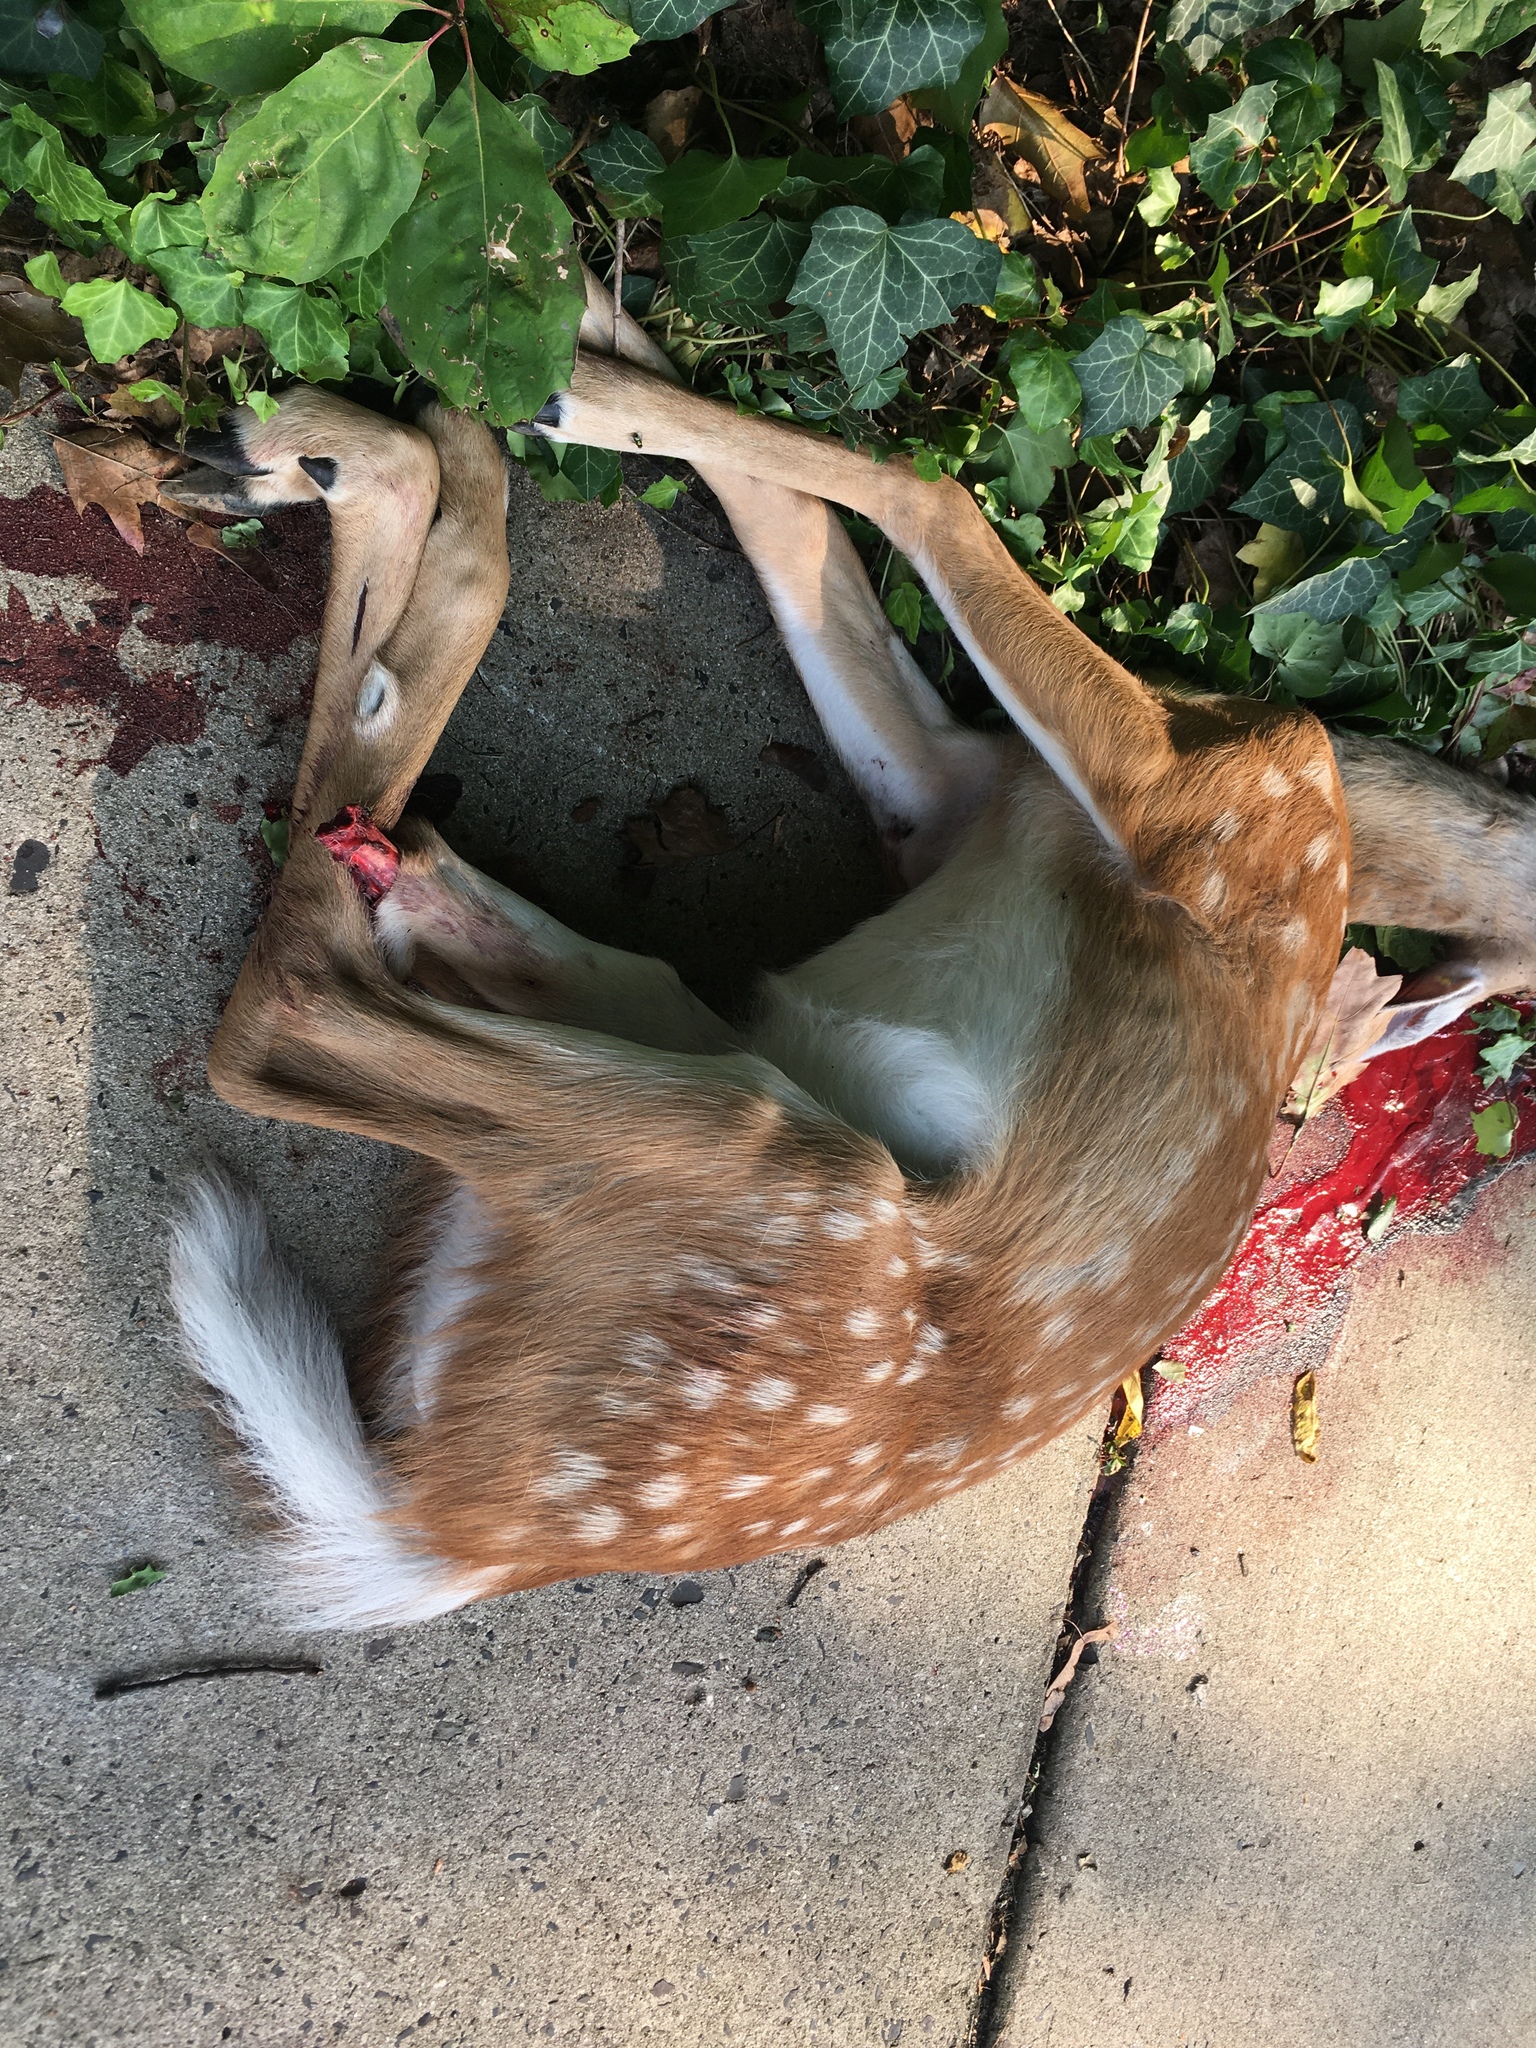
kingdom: Animalia
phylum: Chordata
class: Mammalia
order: Artiodactyla
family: Cervidae
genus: Odocoileus
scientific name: Odocoileus virginianus
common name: White-tailed deer
